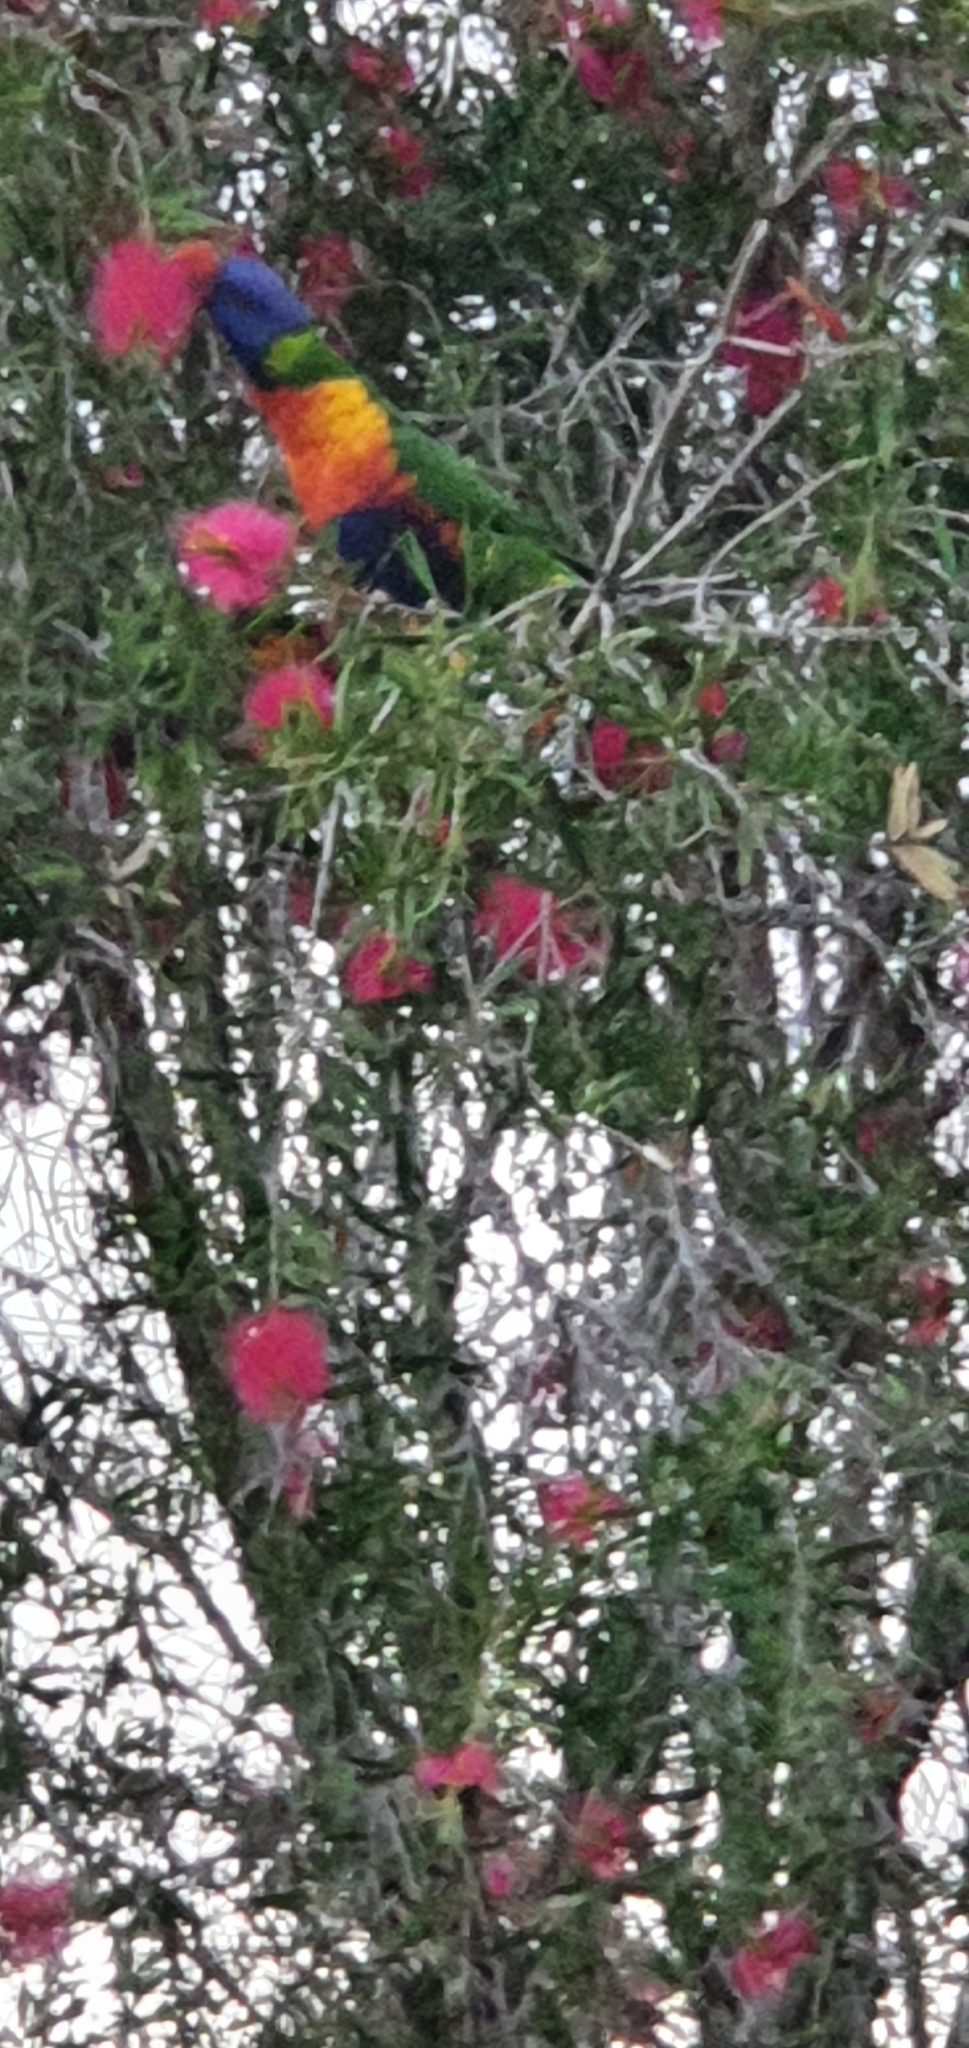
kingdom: Animalia
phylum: Chordata
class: Aves
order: Psittaciformes
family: Psittacidae
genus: Trichoglossus
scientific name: Trichoglossus haematodus
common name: Coconut lorikeet
